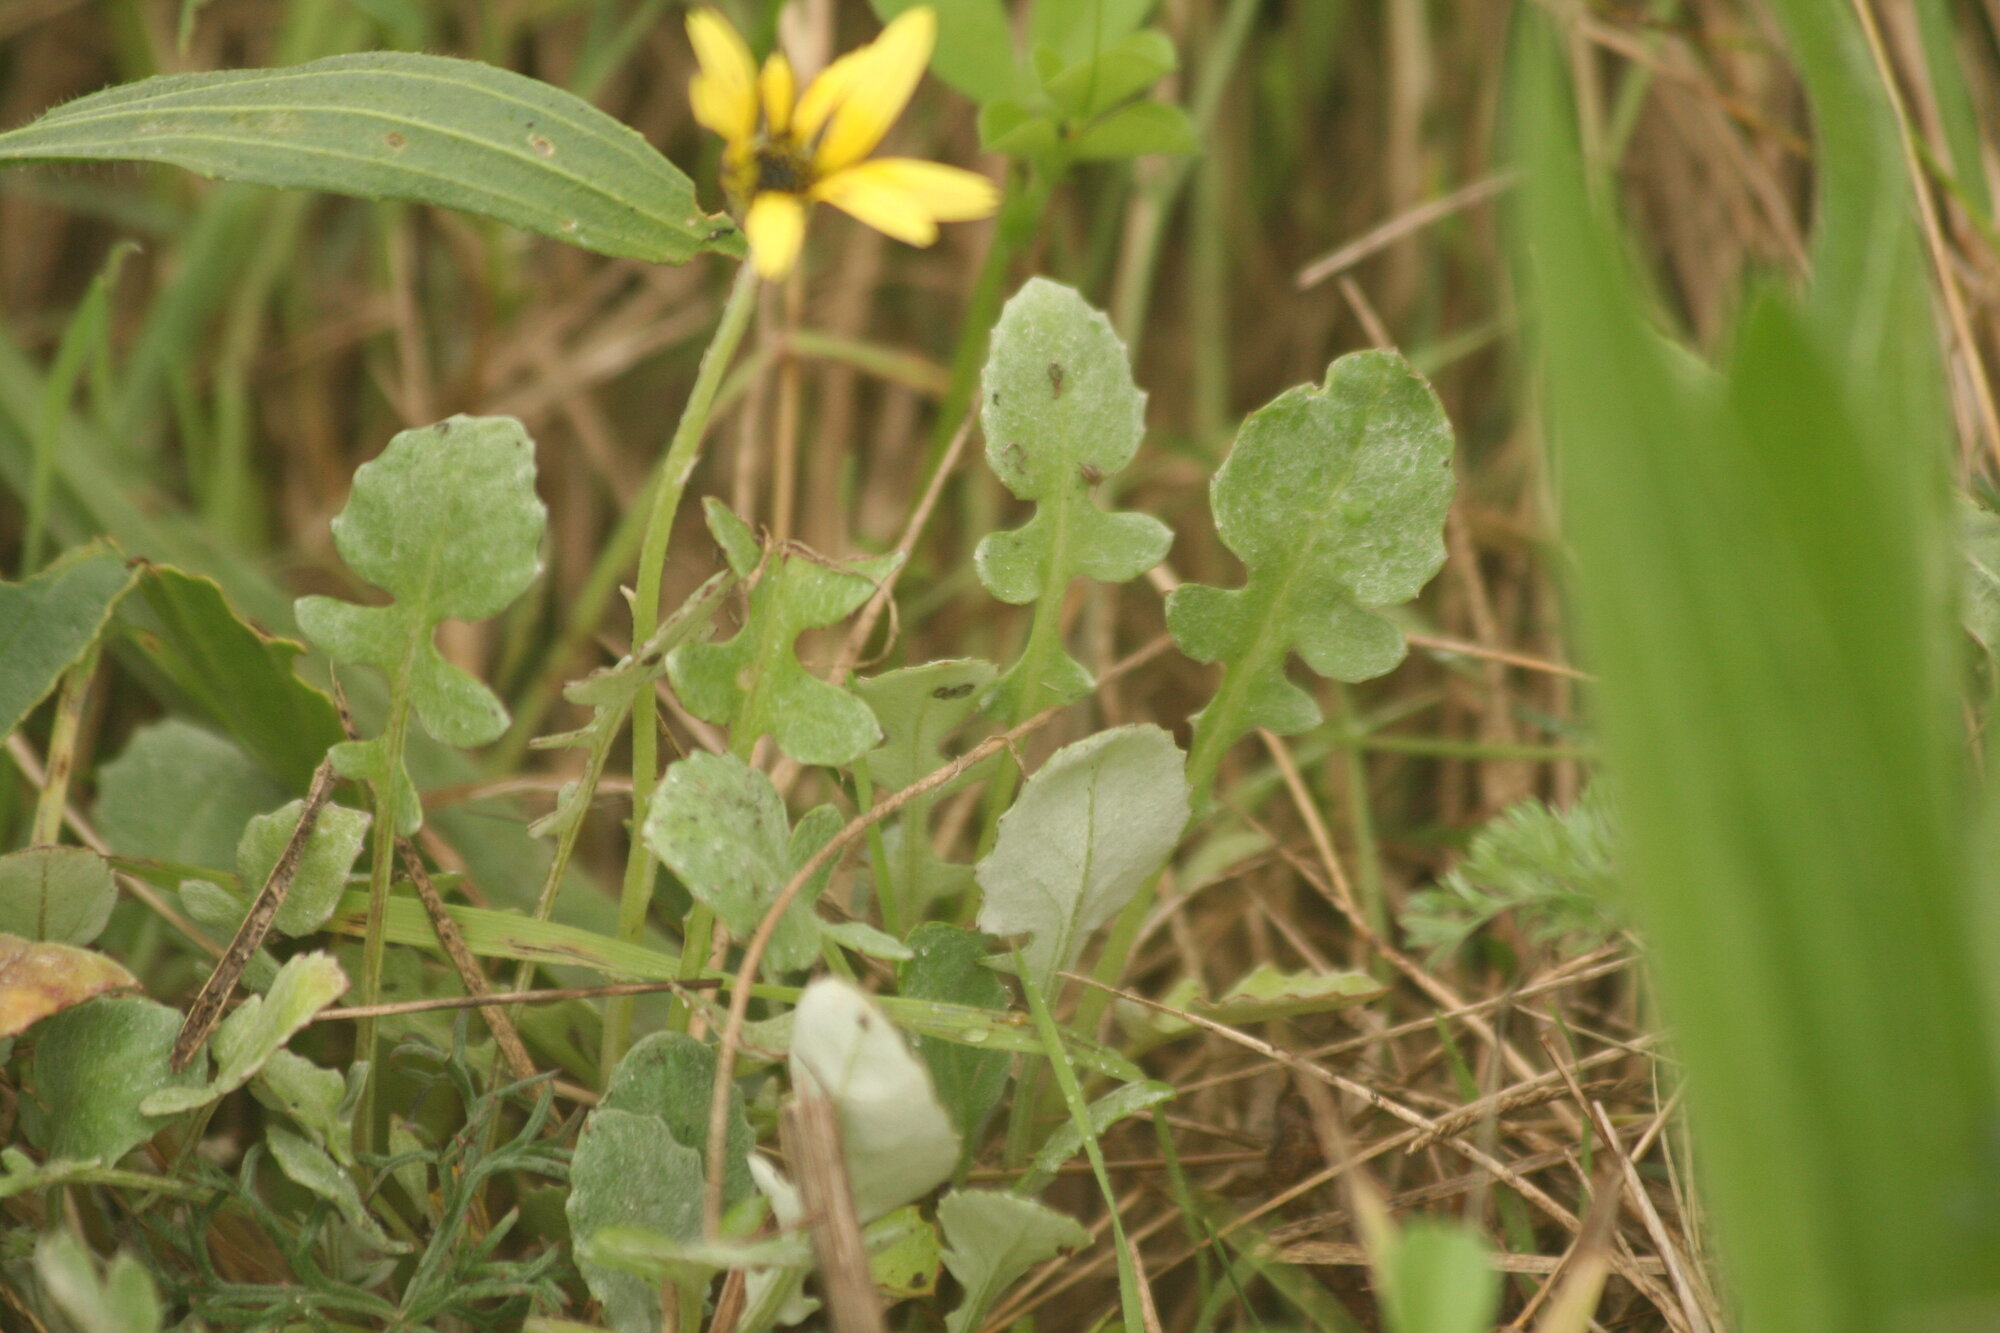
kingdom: Plantae
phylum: Tracheophyta
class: Magnoliopsida
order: Asterales
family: Asteraceae
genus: Arctotheca
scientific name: Arctotheca calendula
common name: Capeweed
